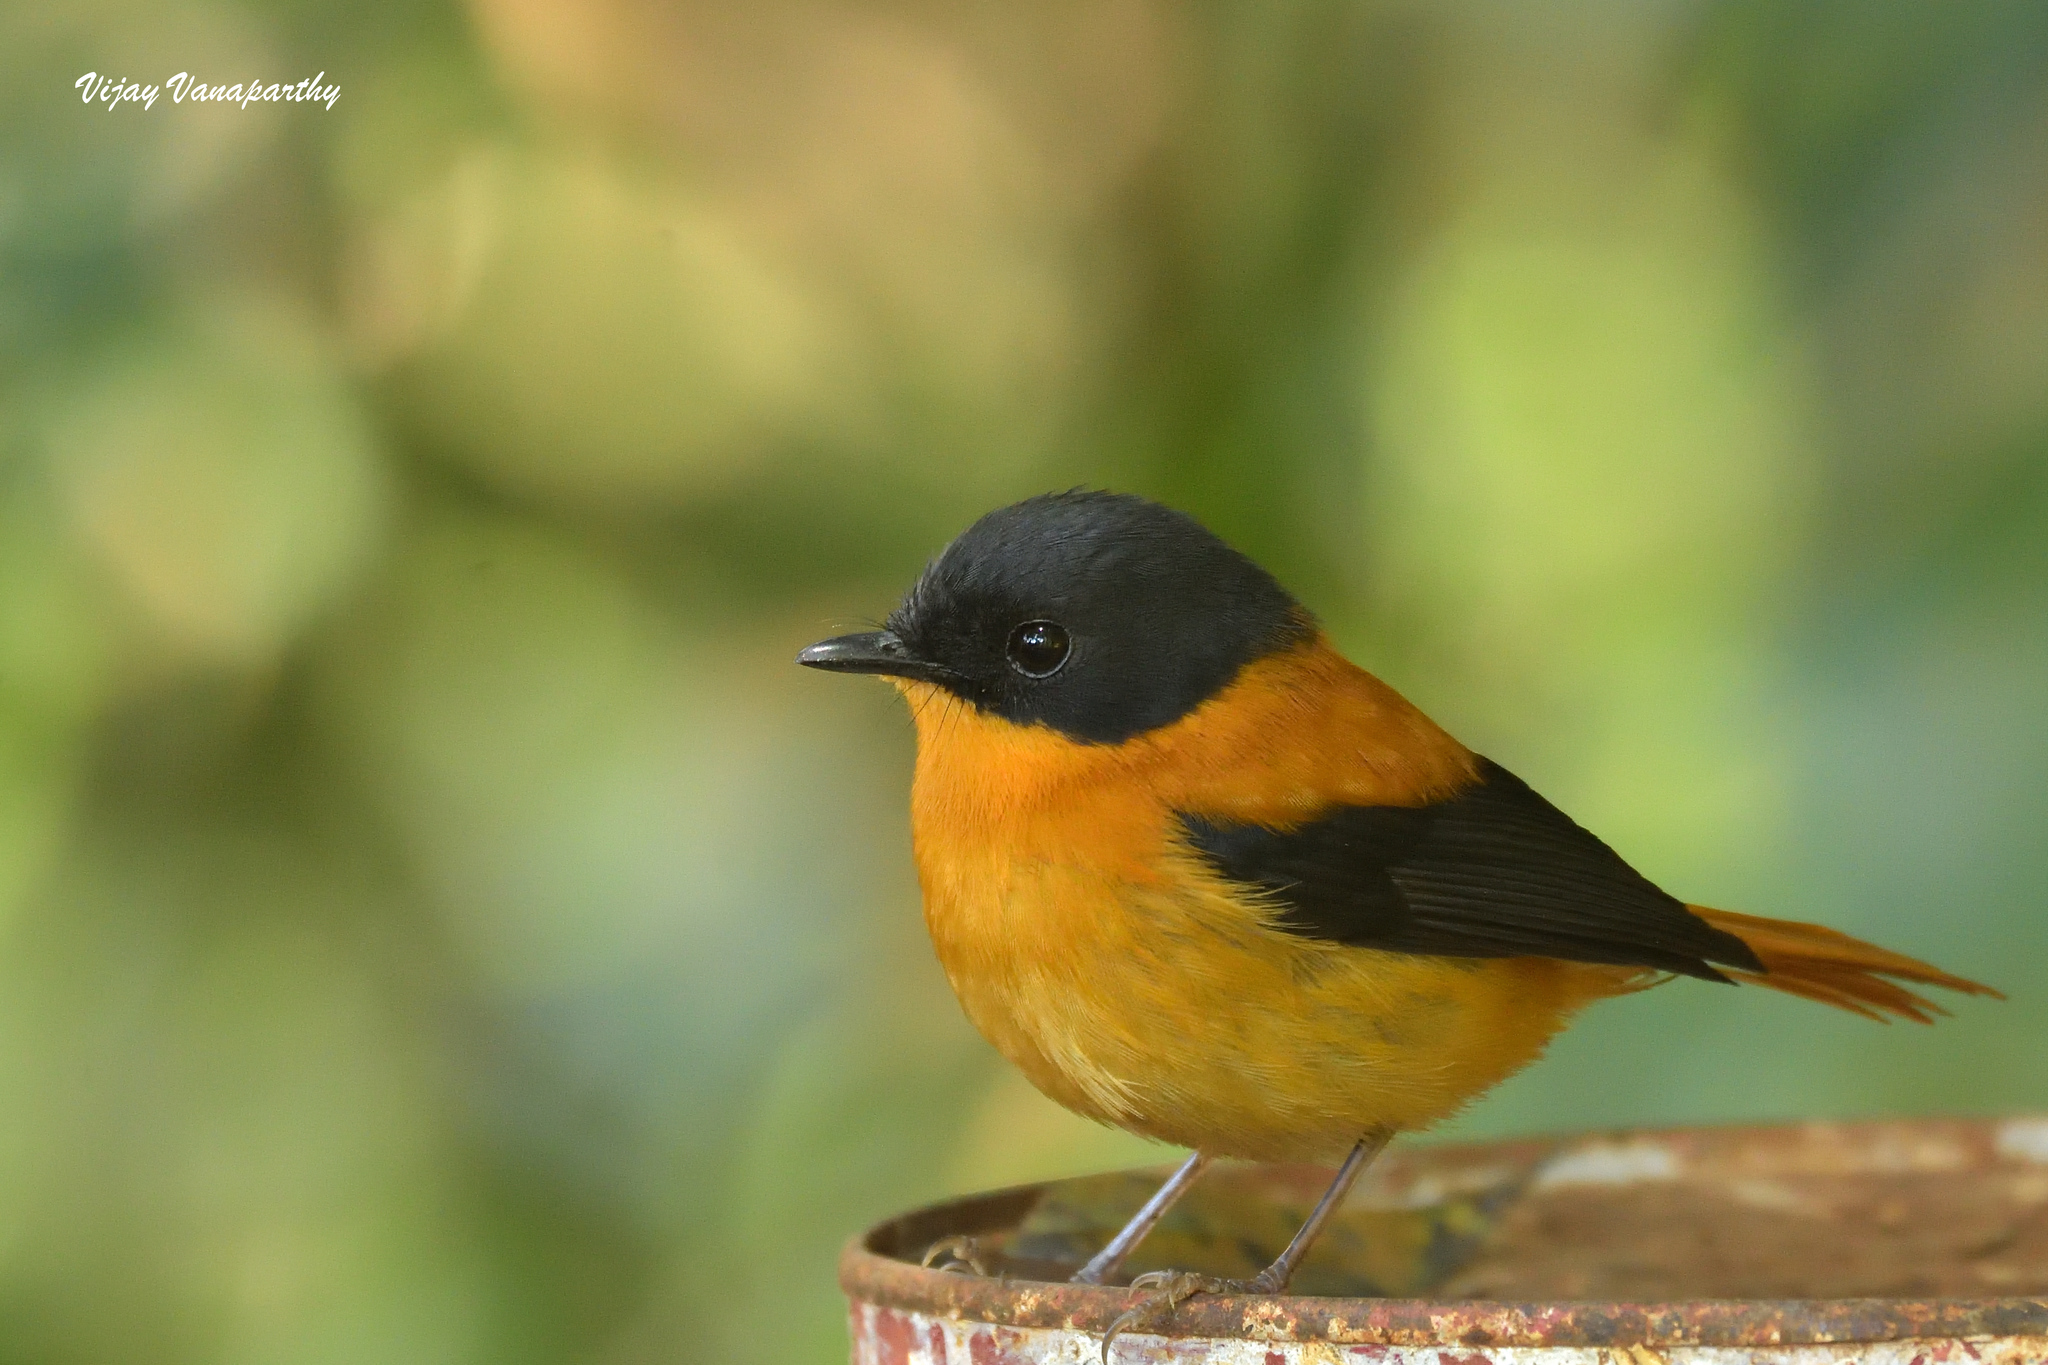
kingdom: Animalia
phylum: Chordata
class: Aves
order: Passeriformes
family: Muscicapidae
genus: Ficedula
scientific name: Ficedula nigrorufa
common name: Black-and-orange flycatcher
